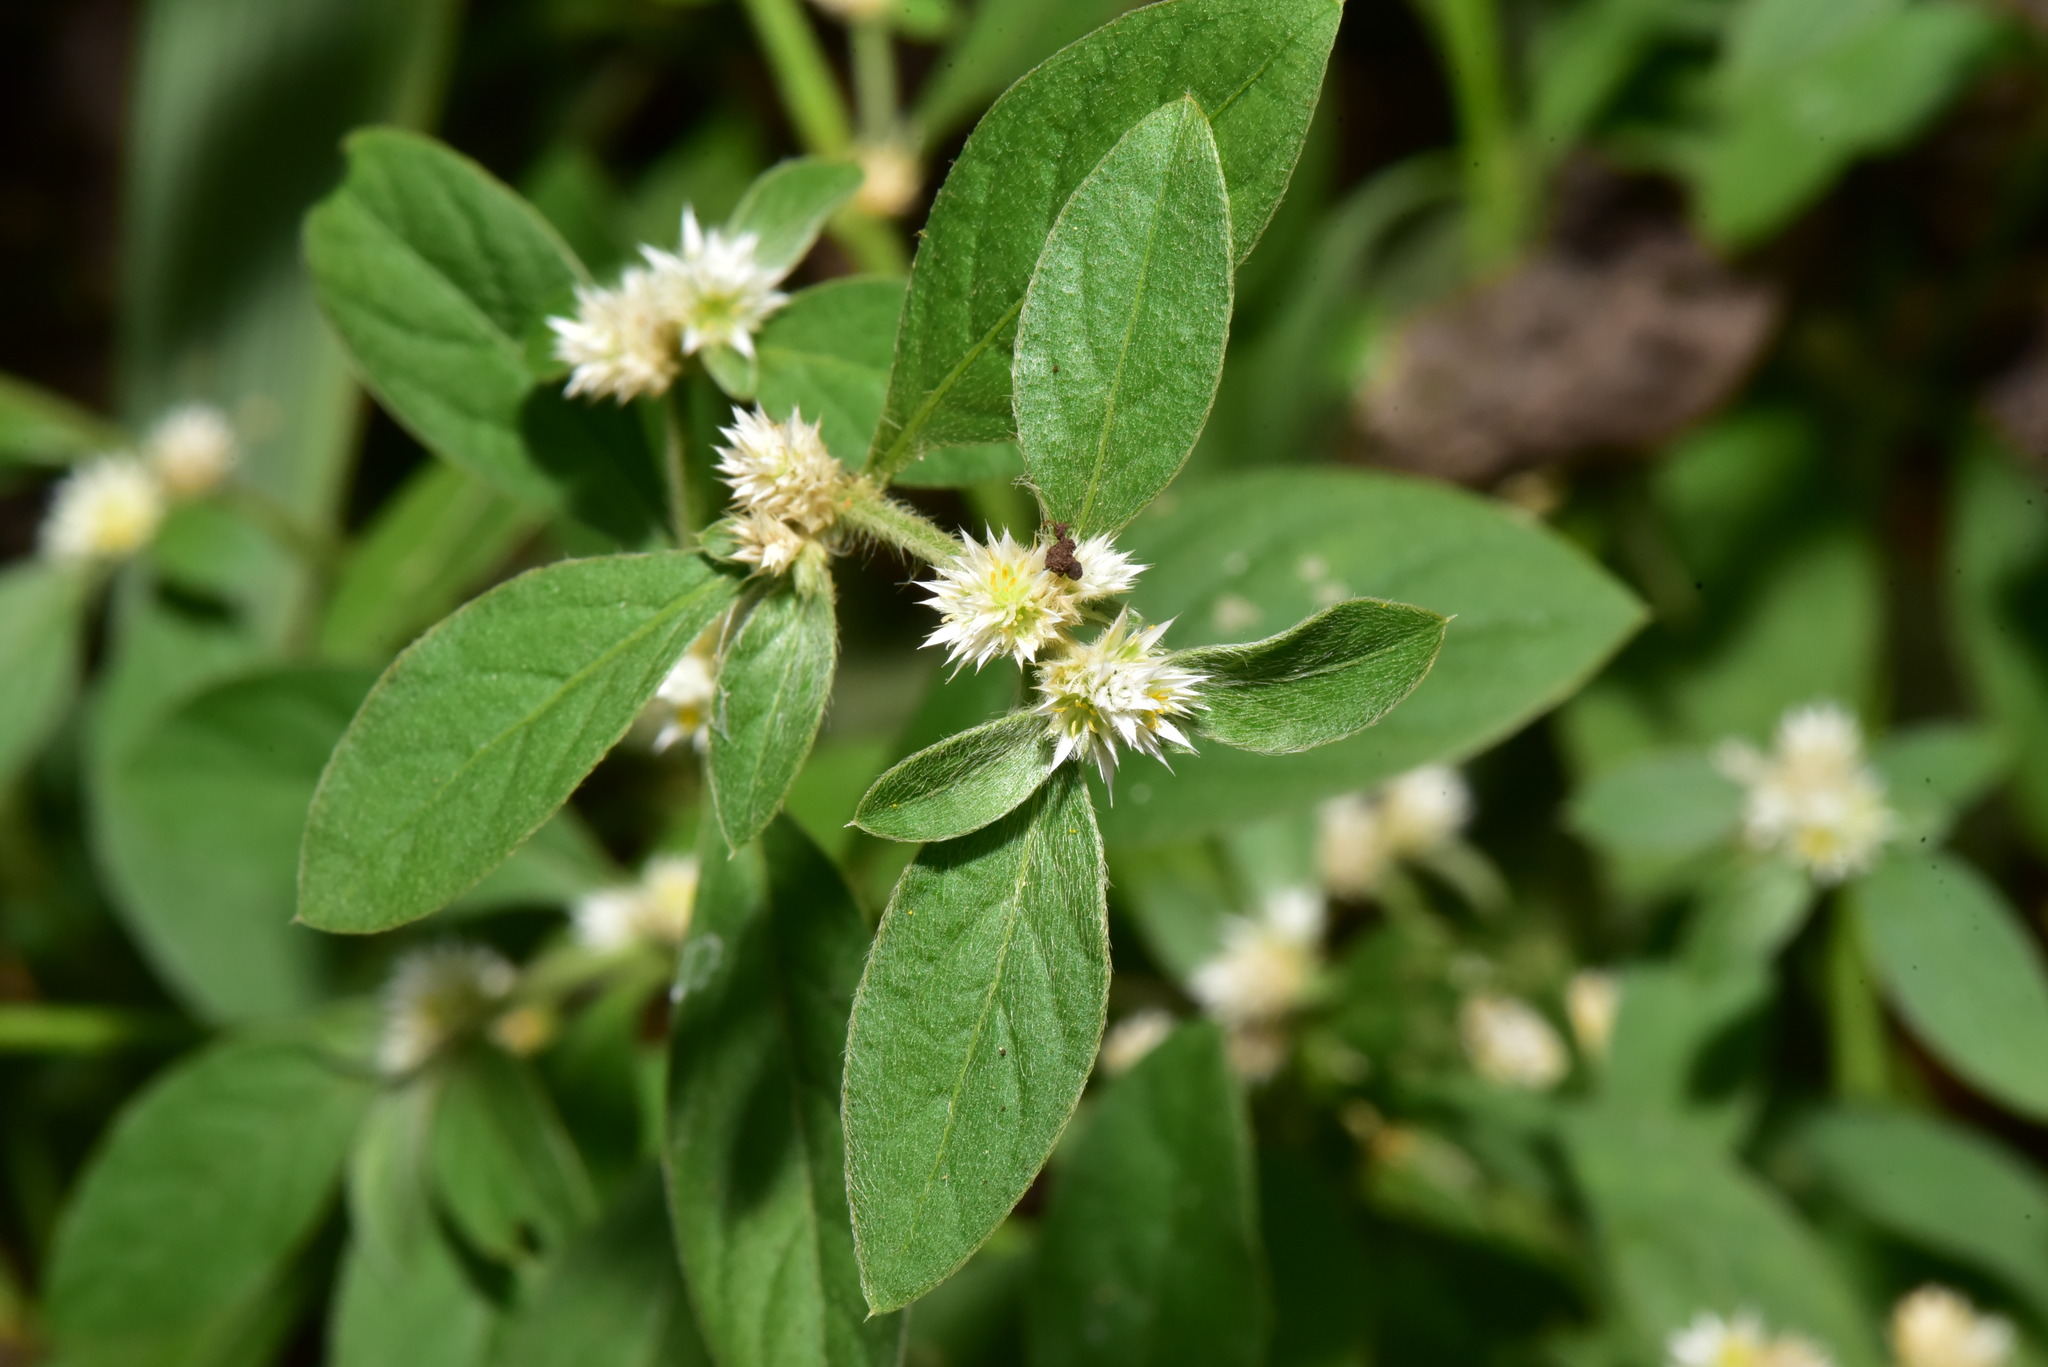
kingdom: Plantae
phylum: Tracheophyta
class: Magnoliopsida
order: Caryophyllales
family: Amaranthaceae
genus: Alternanthera
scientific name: Alternanthera ficoidea
